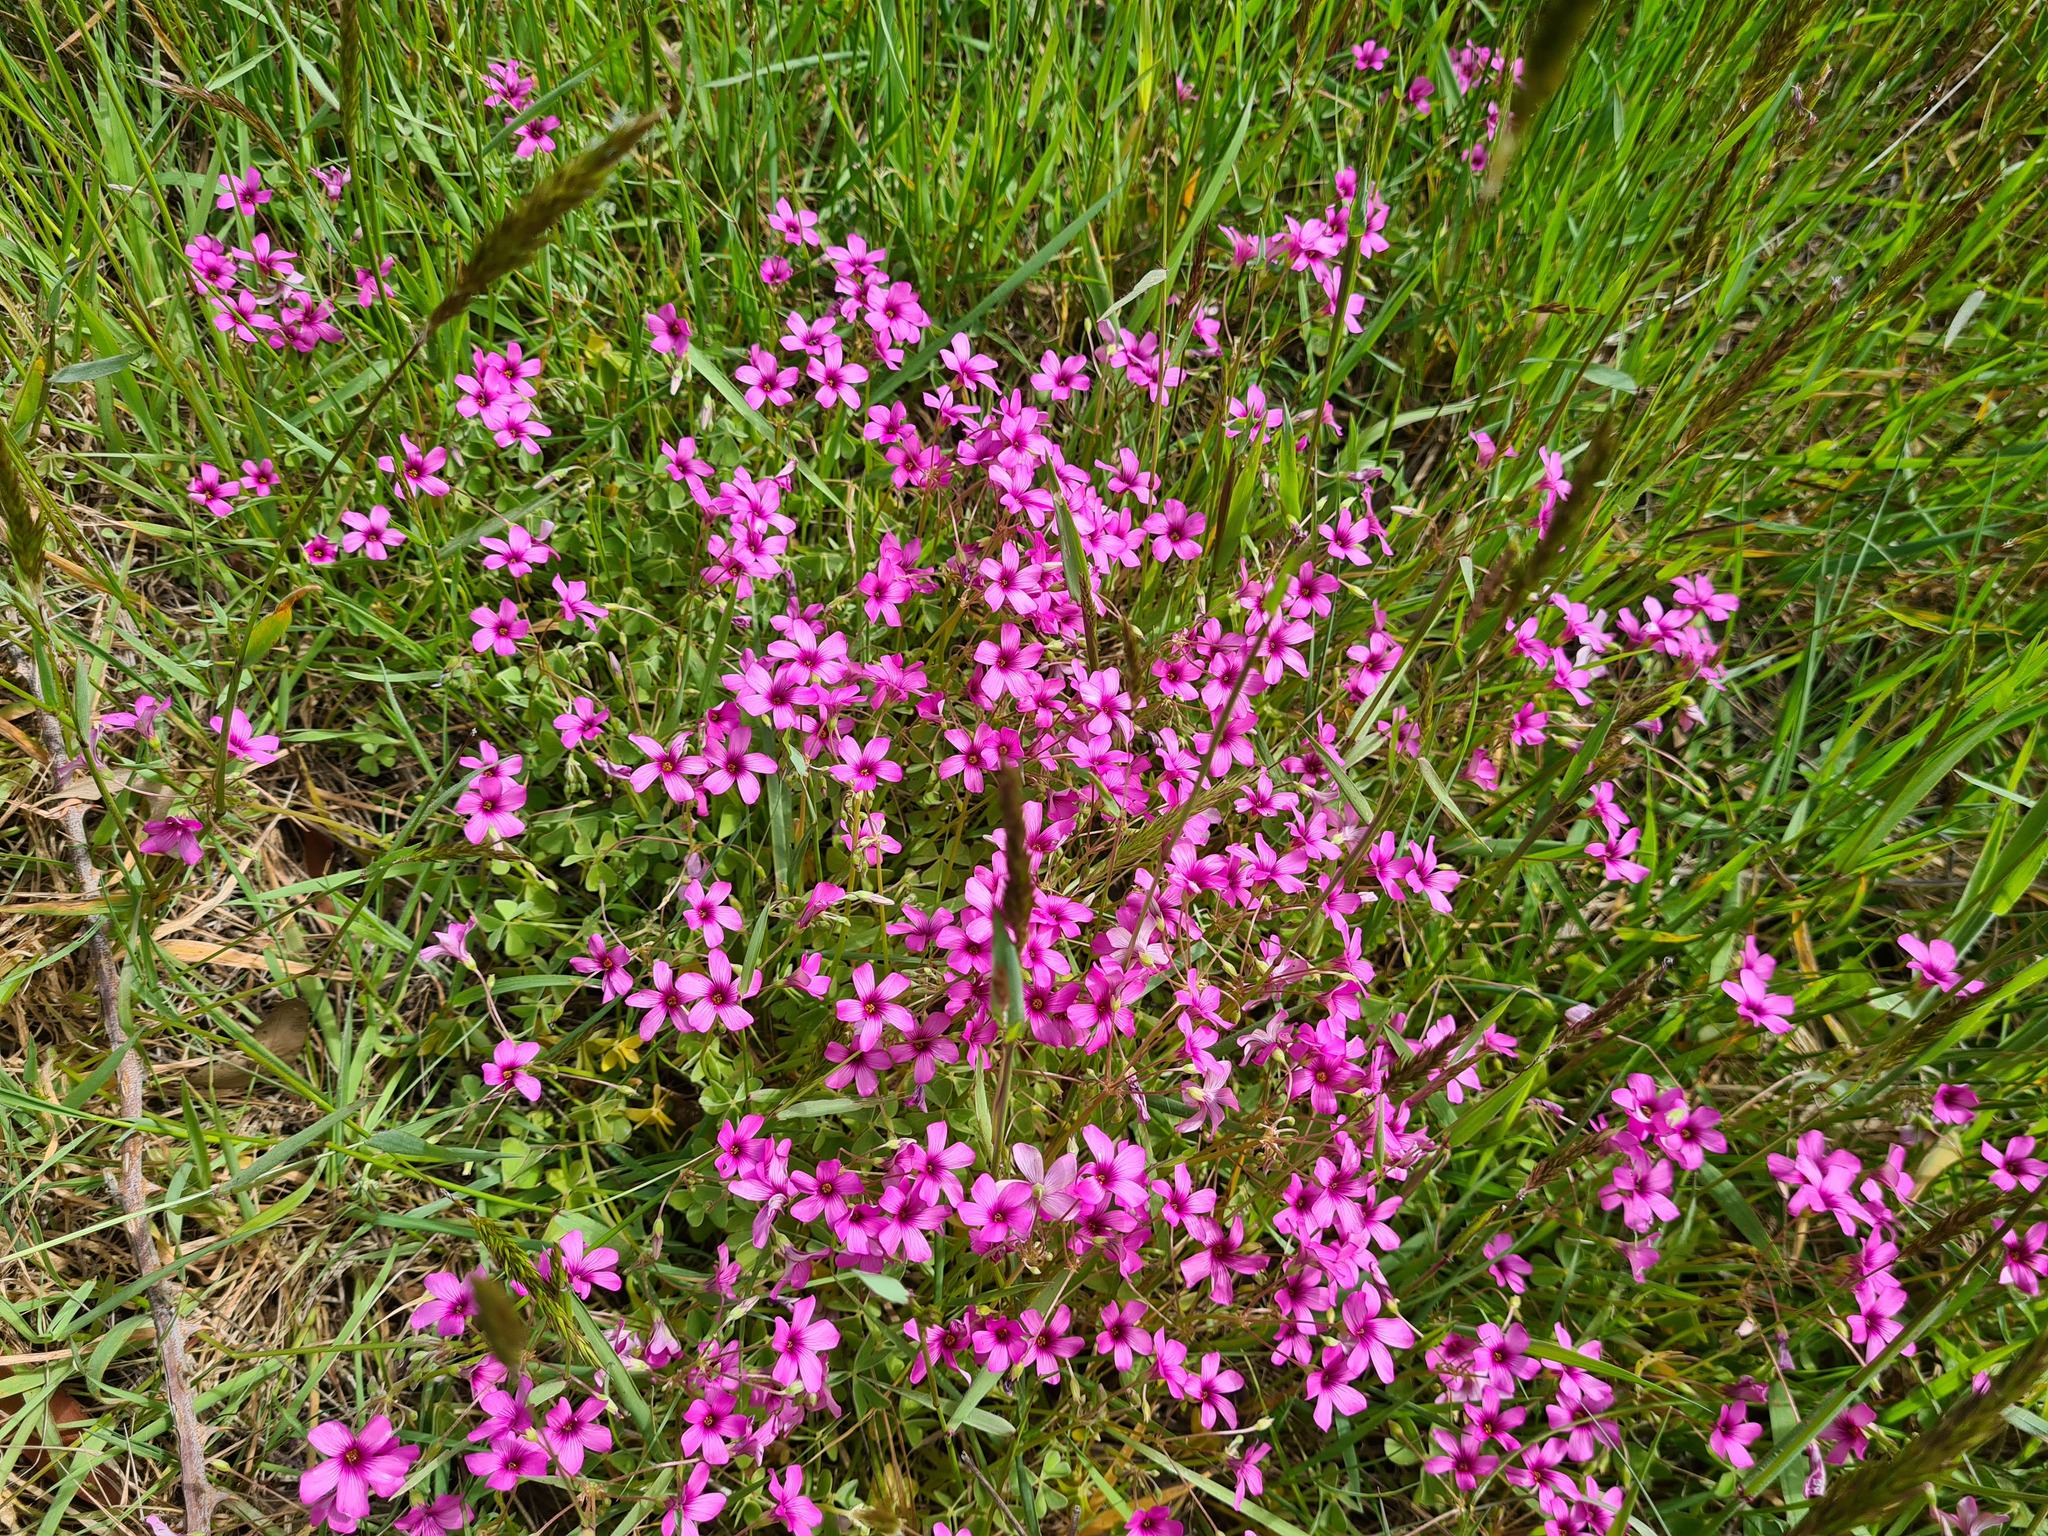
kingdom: Plantae
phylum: Tracheophyta
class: Magnoliopsida
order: Oxalidales
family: Oxalidaceae
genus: Oxalis
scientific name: Oxalis articulata
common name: Pink-sorrel
